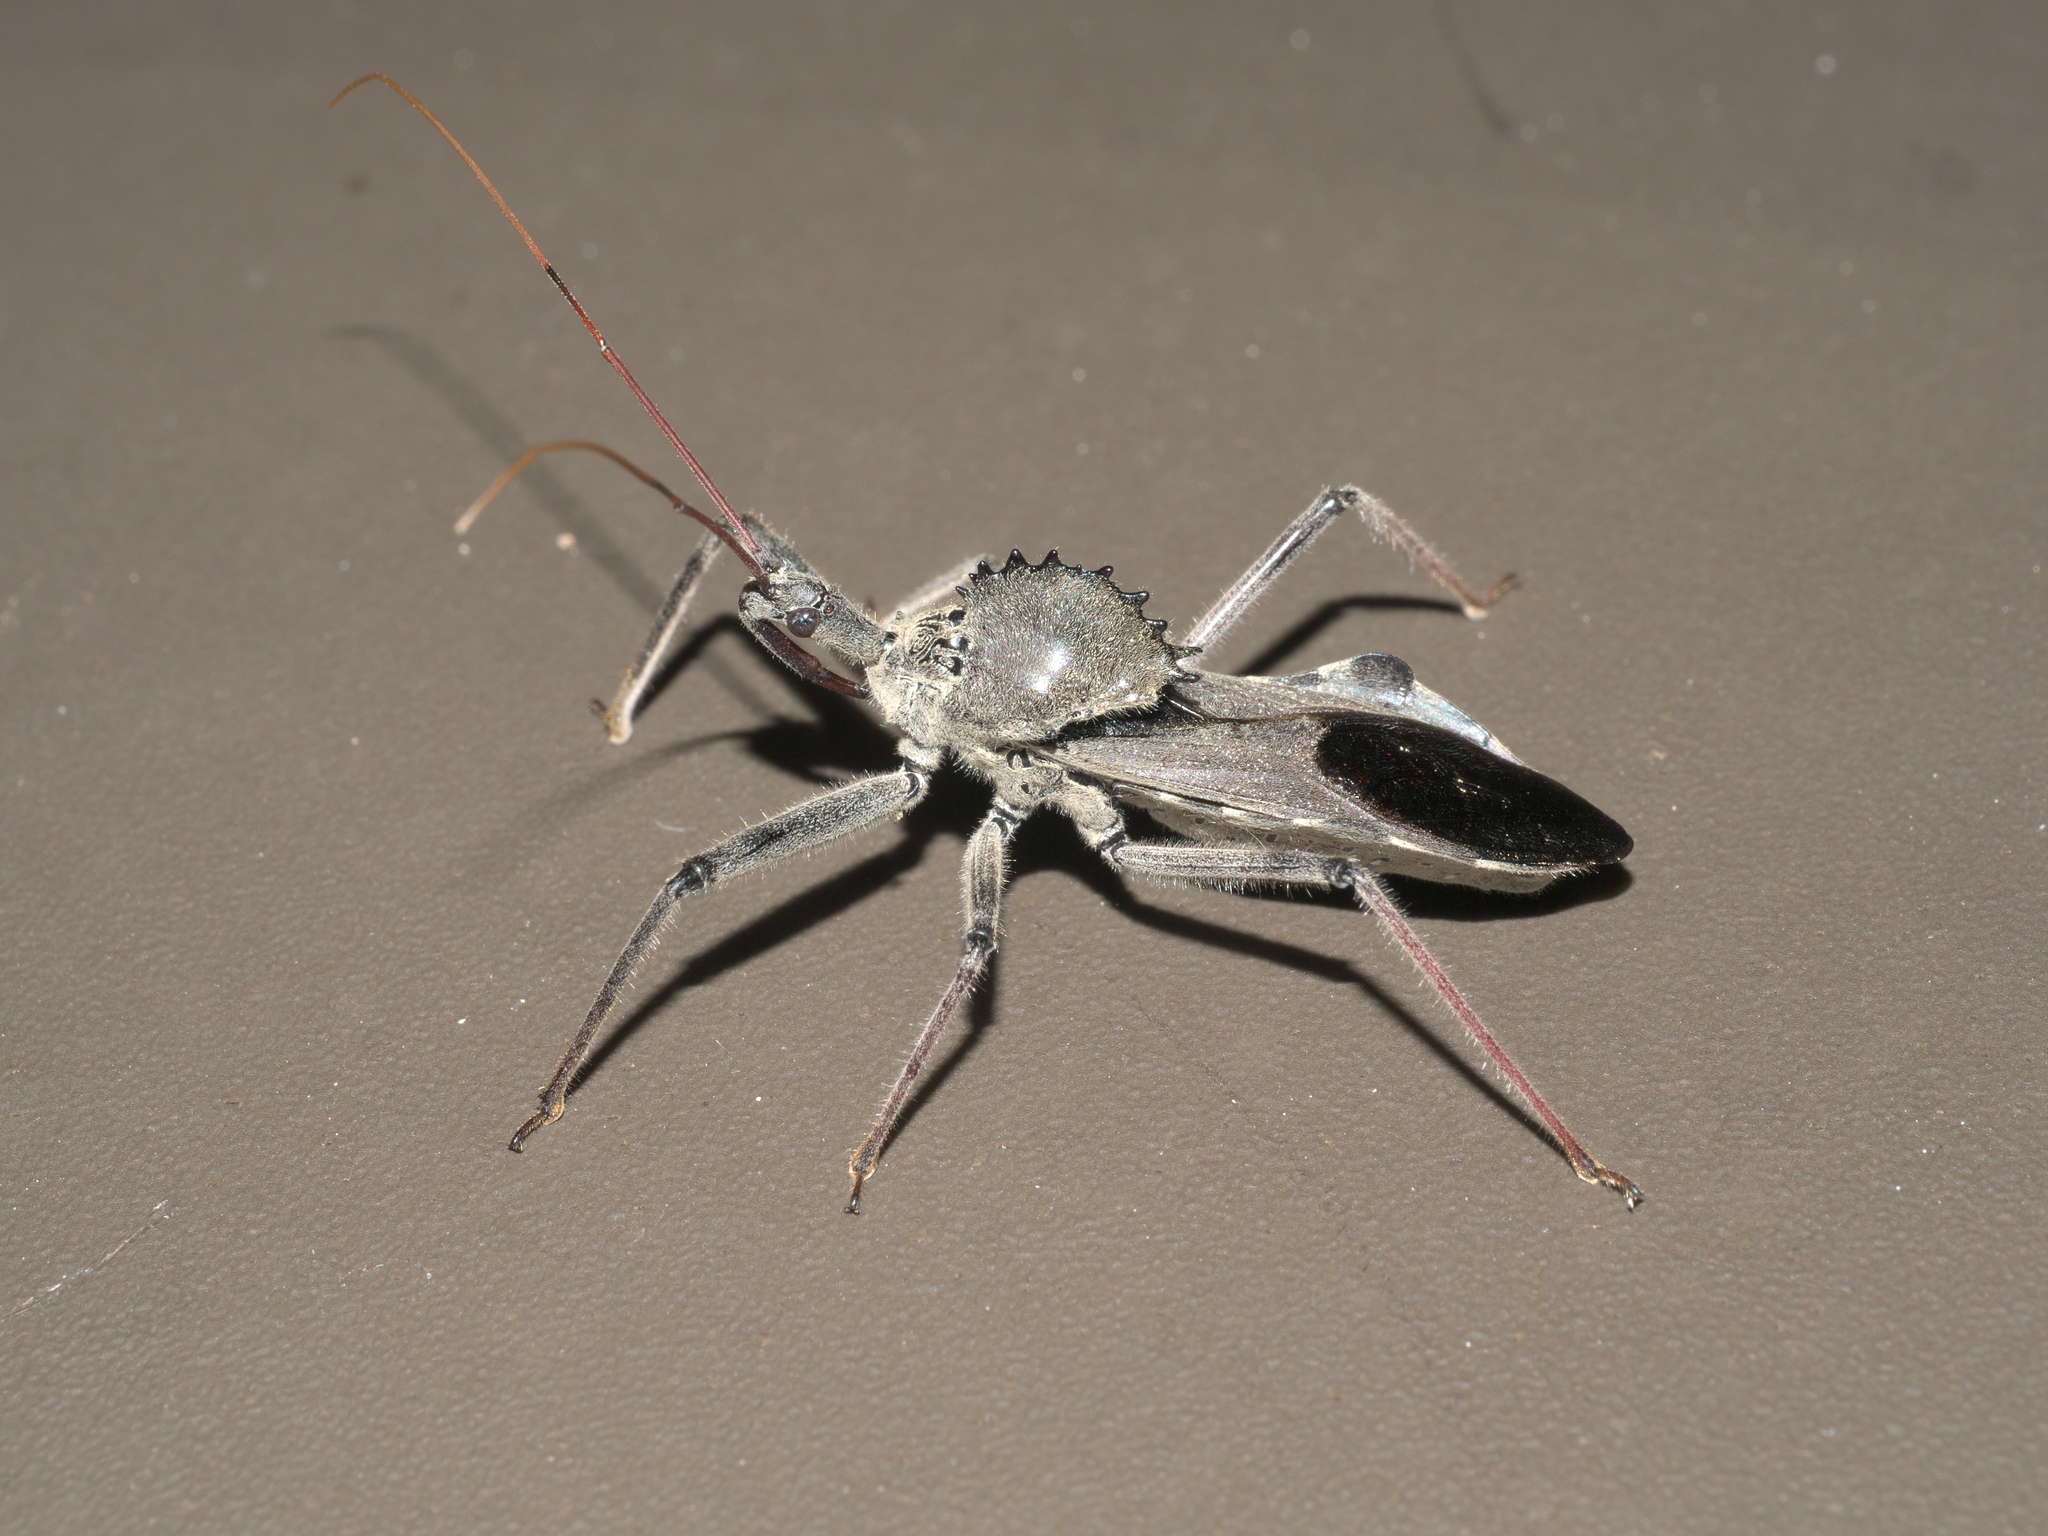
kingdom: Animalia
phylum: Arthropoda
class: Insecta
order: Hemiptera
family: Reduviidae
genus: Arilus
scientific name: Arilus cristatus
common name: North american wheel bug
